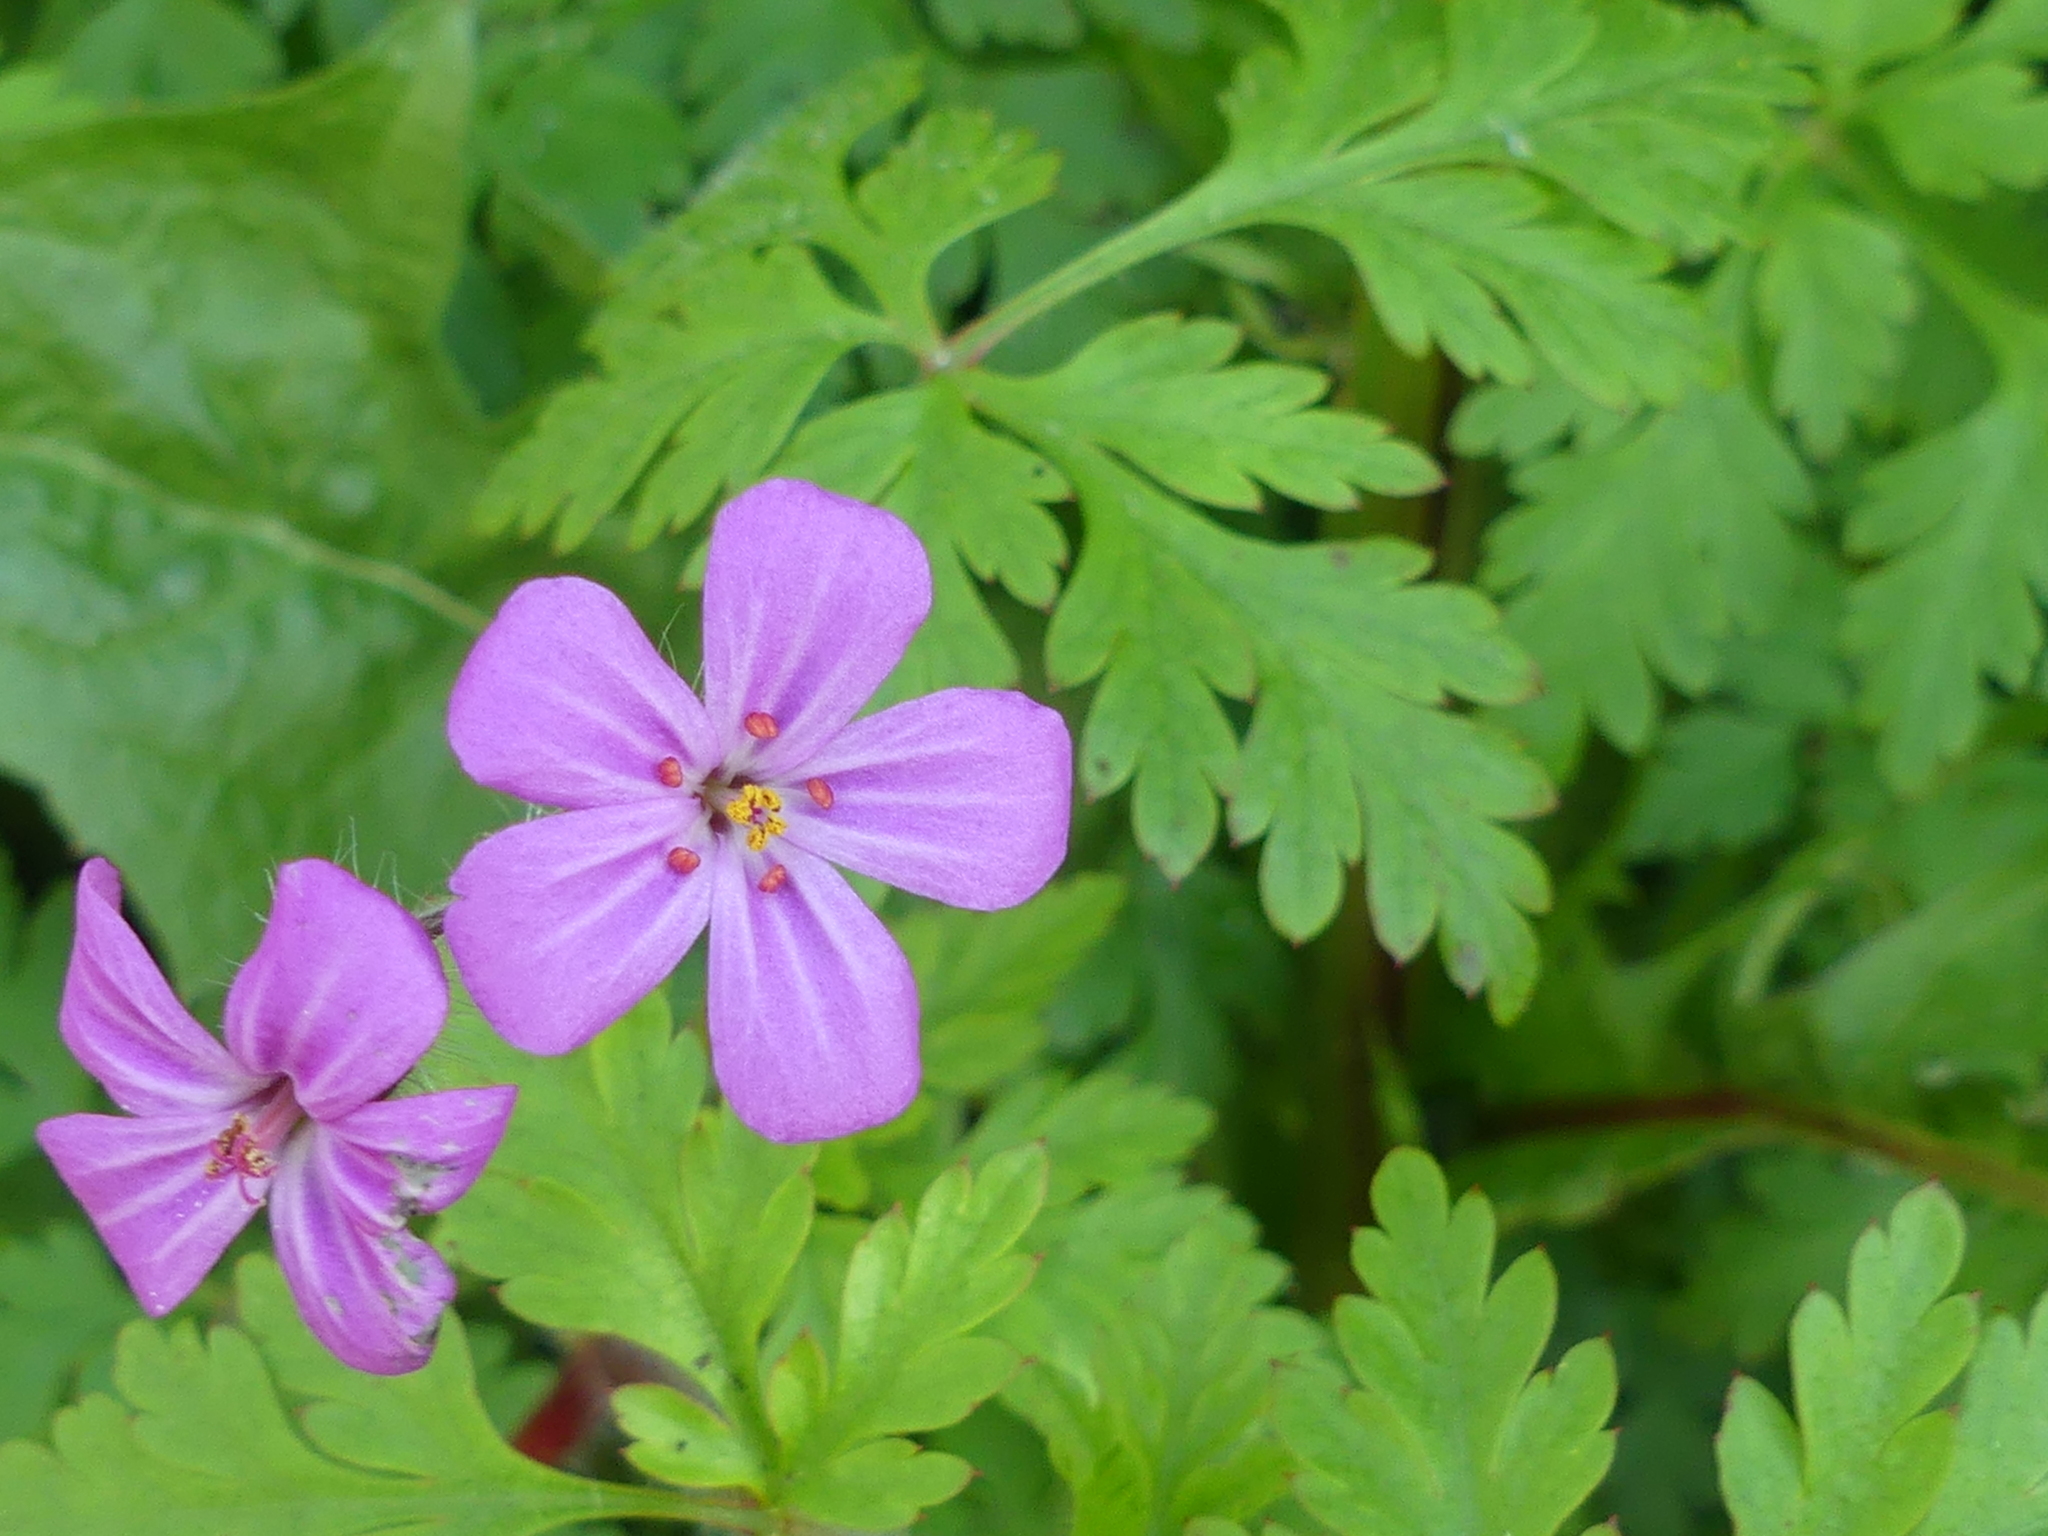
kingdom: Plantae
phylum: Tracheophyta
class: Magnoliopsida
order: Geraniales
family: Geraniaceae
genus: Geranium
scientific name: Geranium robertianum
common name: Herb-robert
